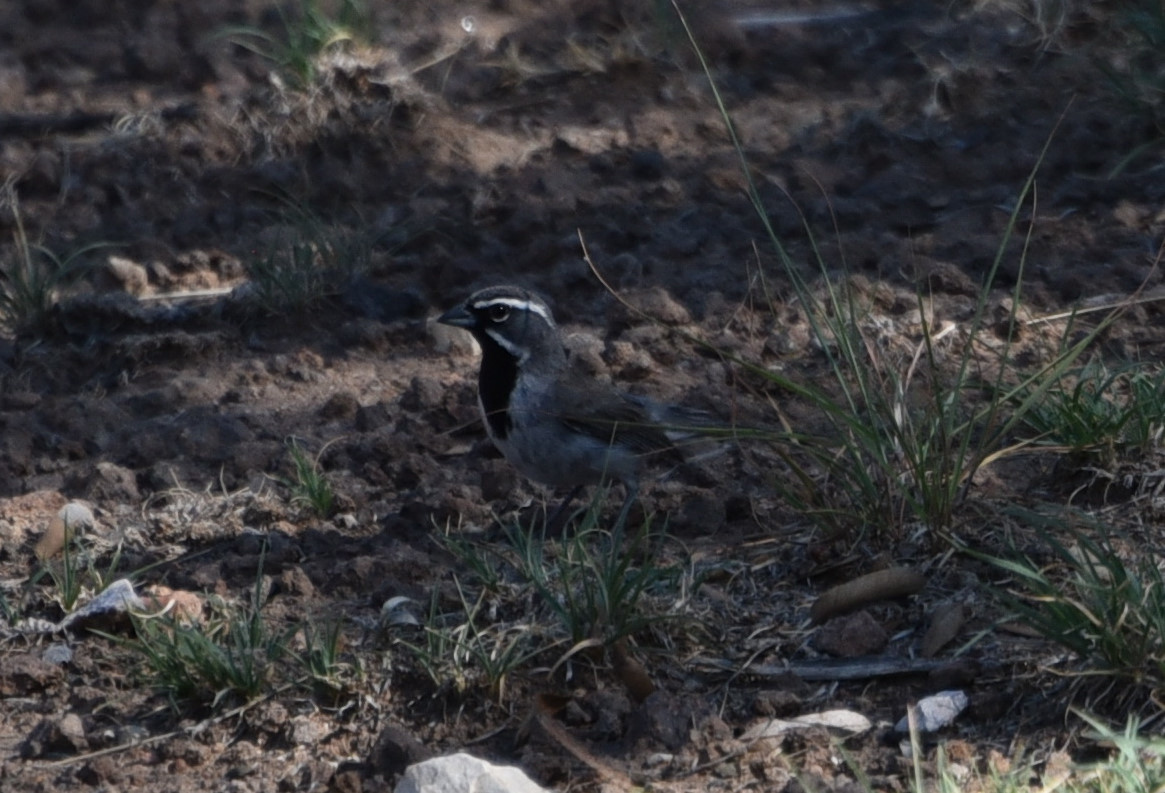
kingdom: Animalia
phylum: Chordata
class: Aves
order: Passeriformes
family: Passerellidae
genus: Amphispiza
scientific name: Amphispiza bilineata
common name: Black-throated sparrow
